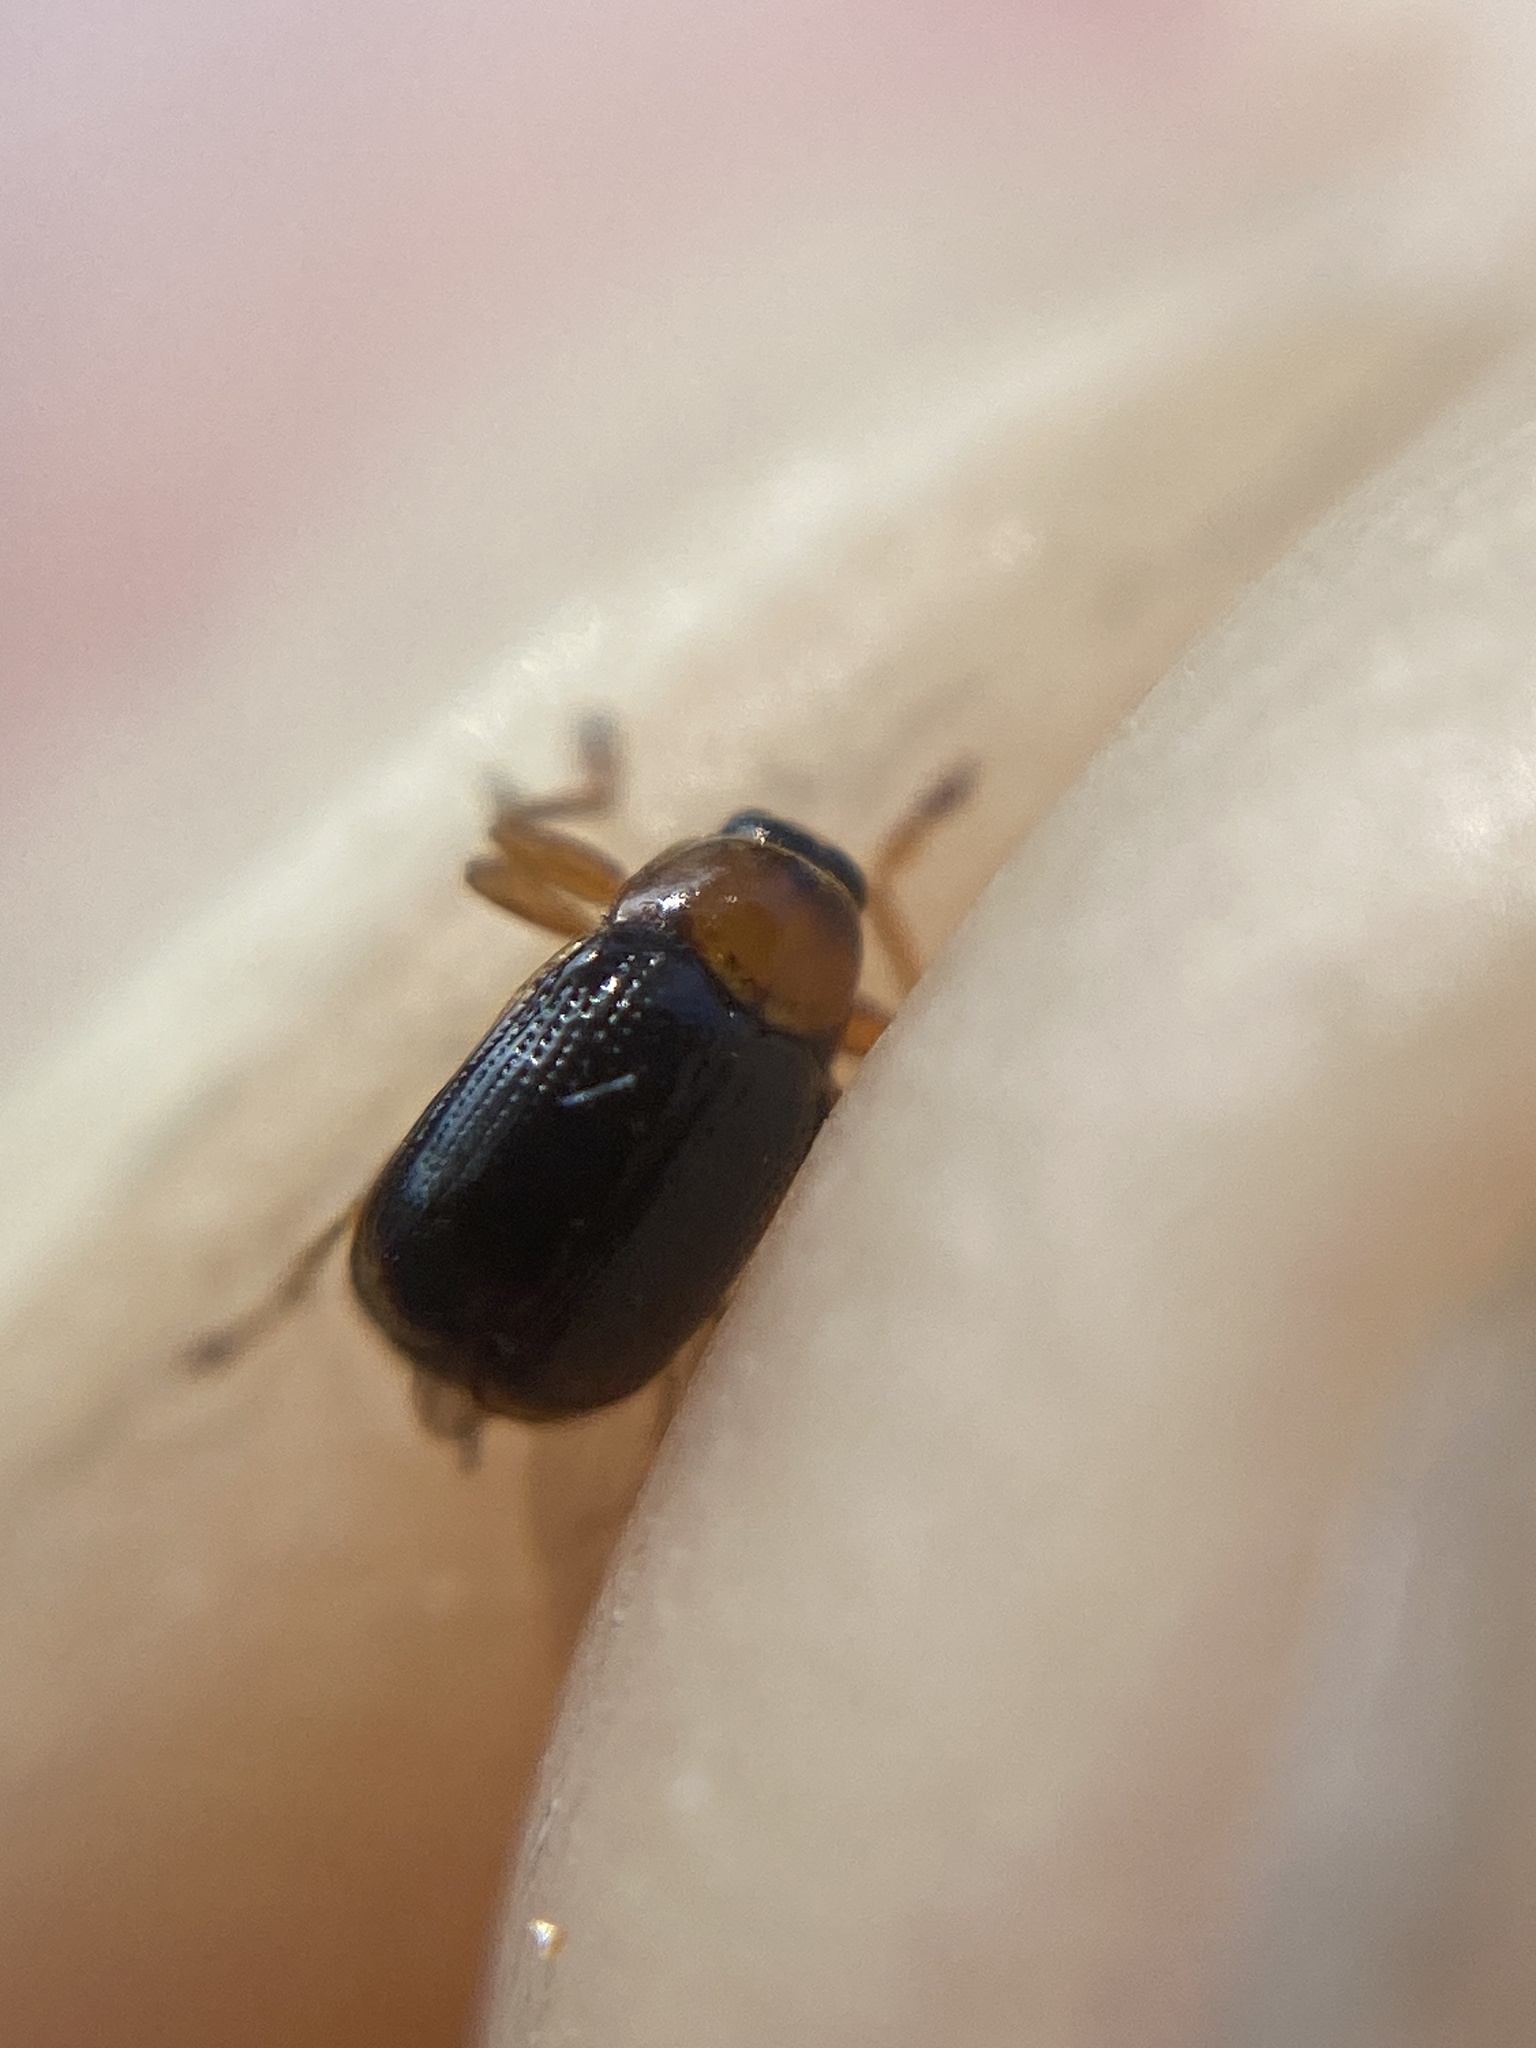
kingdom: Animalia
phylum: Arthropoda
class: Insecta
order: Coleoptera
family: Chrysomelidae
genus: Cryptocephalus
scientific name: Cryptocephalus pusillus
